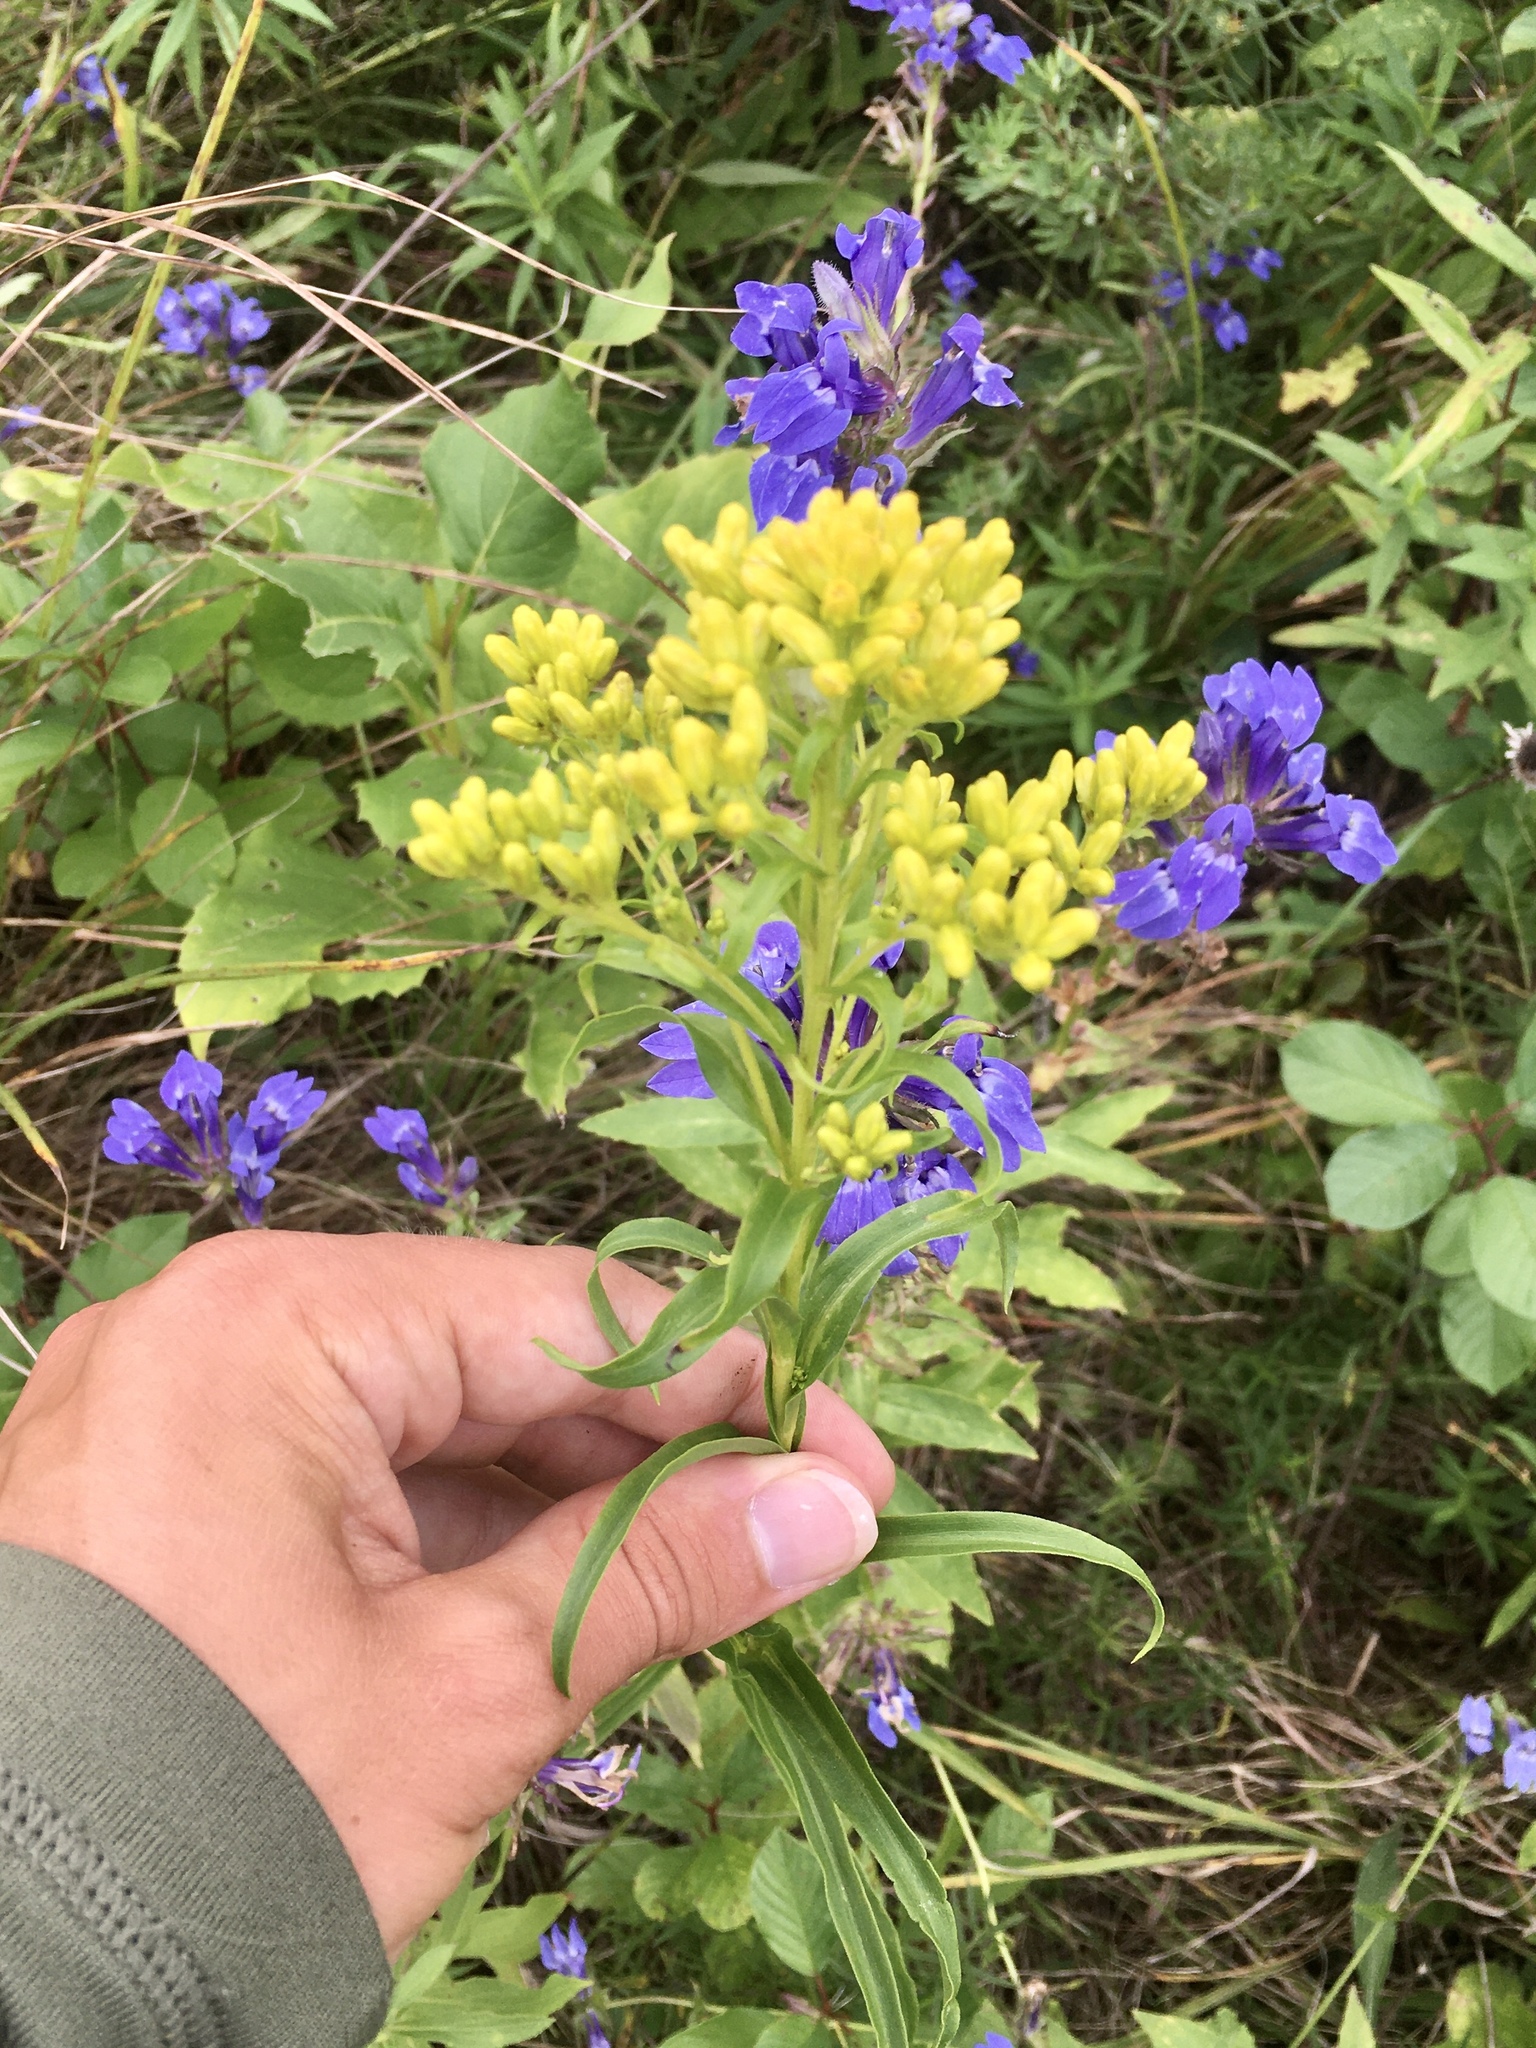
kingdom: Plantae
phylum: Tracheophyta
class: Magnoliopsida
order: Asterales
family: Asteraceae
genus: Solidago
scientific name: Solidago riddellii
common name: Riddell's goldenrod
